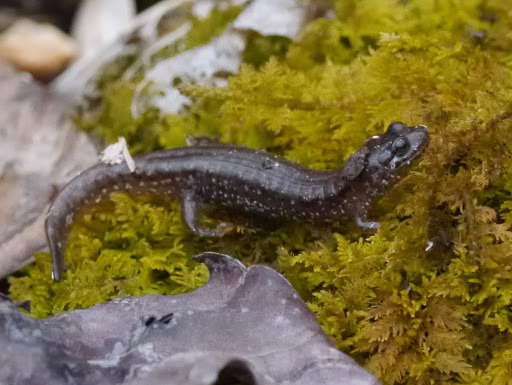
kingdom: Animalia
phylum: Chordata
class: Amphibia
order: Caudata
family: Plethodontidae
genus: Desmognathus
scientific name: Desmognathus fuscus
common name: Northern dusky salamander
